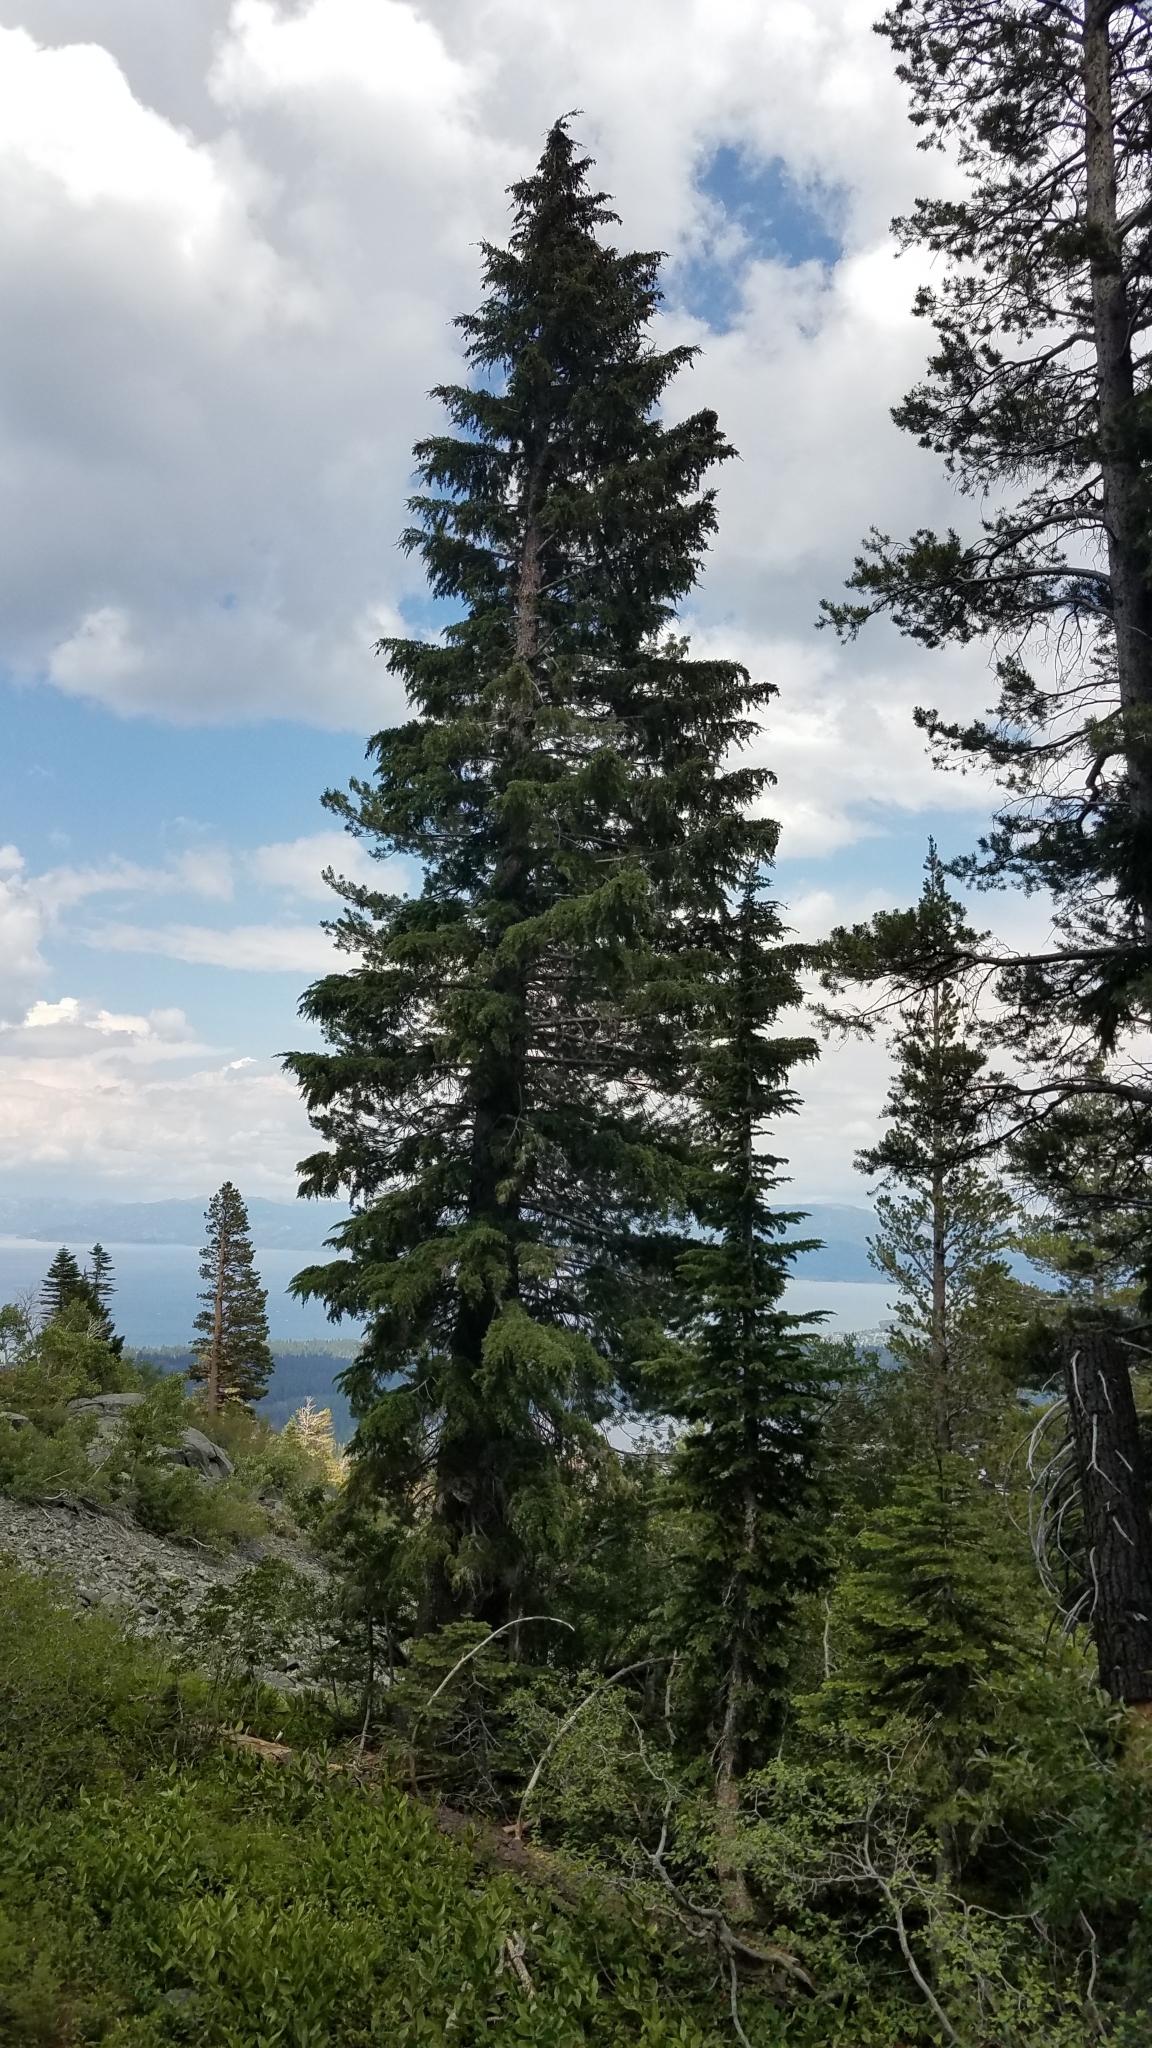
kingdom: Plantae
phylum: Tracheophyta
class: Pinopsida
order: Pinales
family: Pinaceae
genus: Tsuga
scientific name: Tsuga mertensiana
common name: Mountain hemlock
